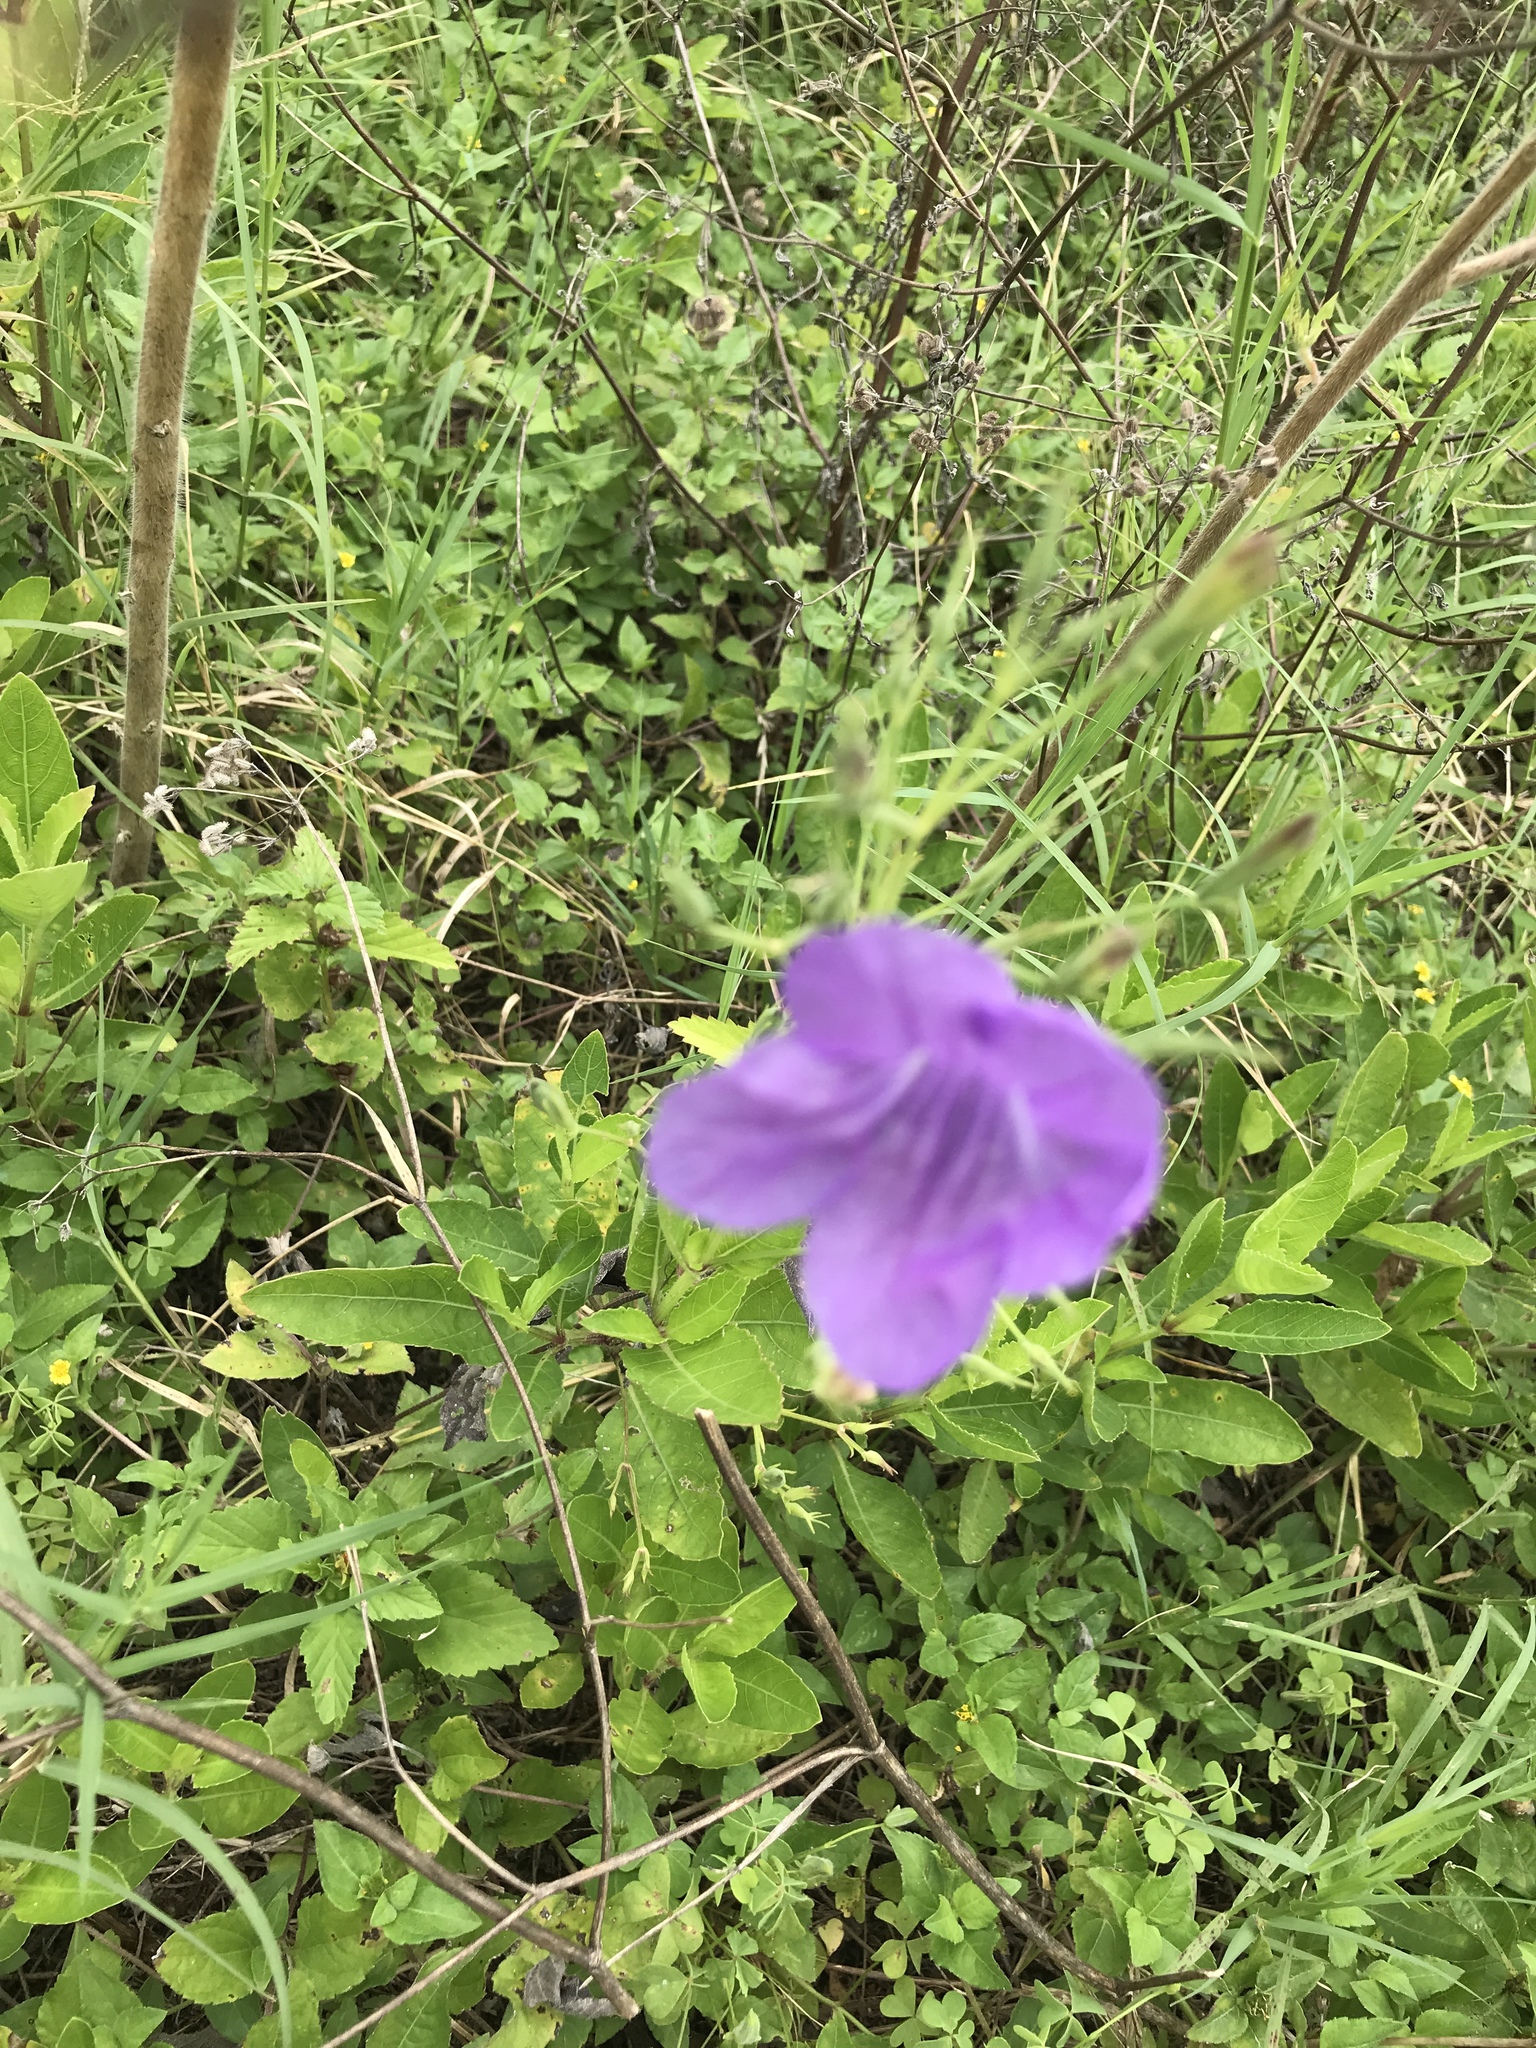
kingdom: Plantae
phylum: Tracheophyta
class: Magnoliopsida
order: Lamiales
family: Acanthaceae
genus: Ruellia
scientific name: Ruellia ciliatiflora
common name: Hairyflower wild petunia
